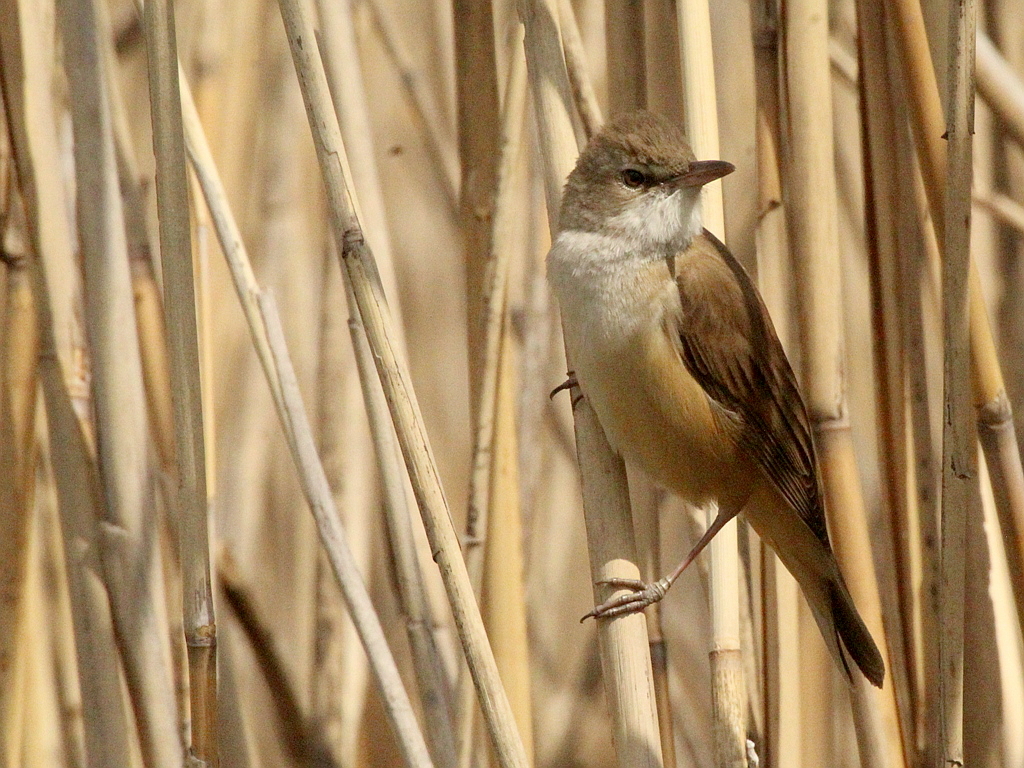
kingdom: Animalia
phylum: Chordata
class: Aves
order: Passeriformes
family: Acrocephalidae
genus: Acrocephalus
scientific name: Acrocephalus arundinaceus
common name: Great reed warbler
